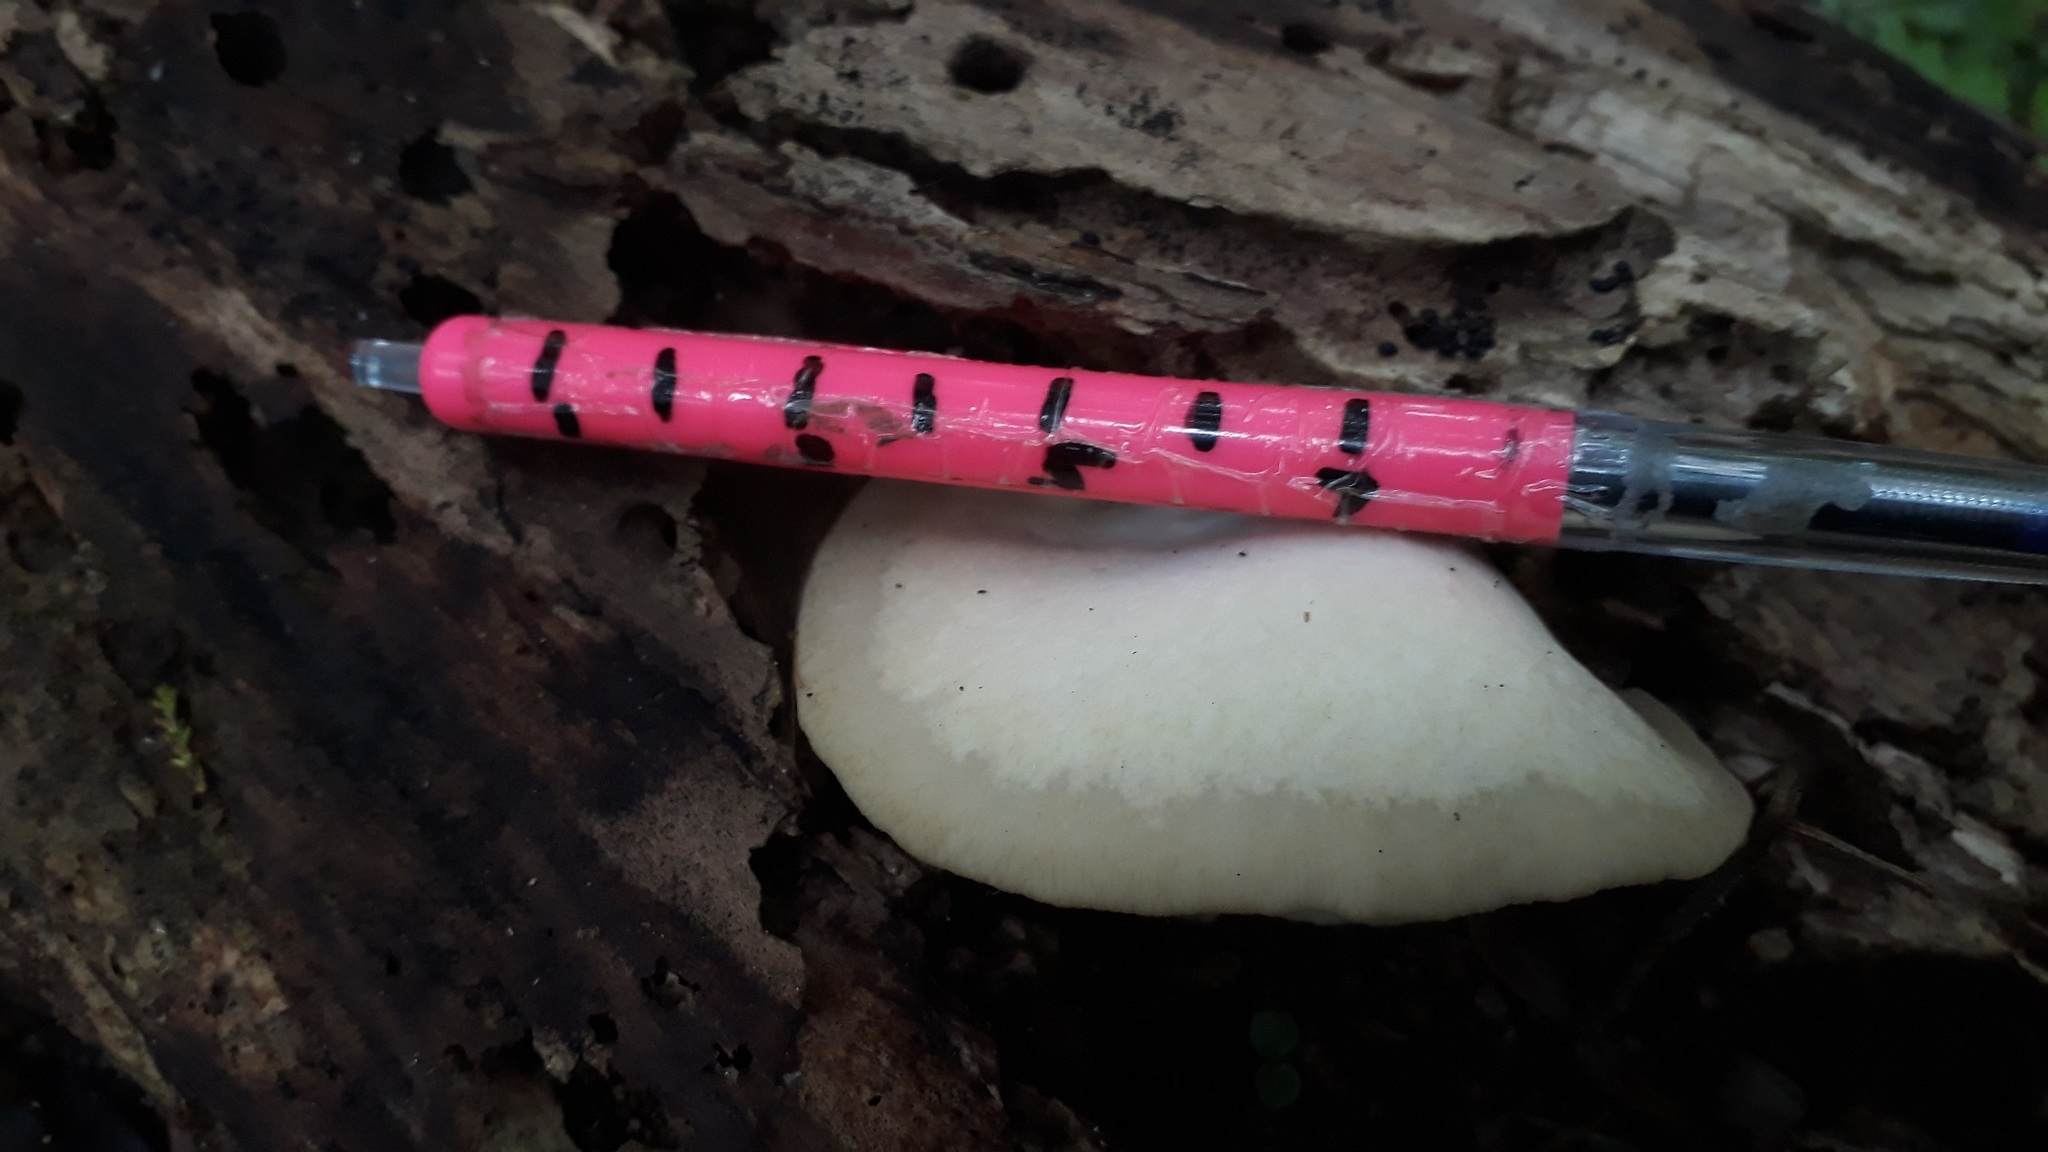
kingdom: Fungi
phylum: Basidiomycota
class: Agaricomycetes
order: Agaricales
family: Tricholomataceae
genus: Conchomyces
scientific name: Conchomyces bursiformis
